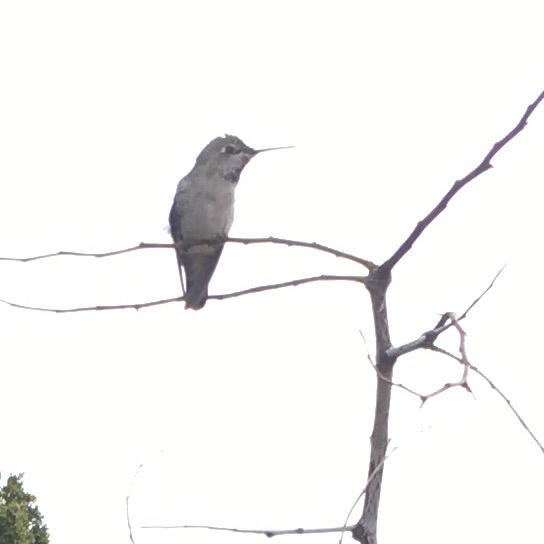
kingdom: Animalia
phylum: Chordata
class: Aves
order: Apodiformes
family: Trochilidae
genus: Calypte
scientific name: Calypte anna
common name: Anna's hummingbird
